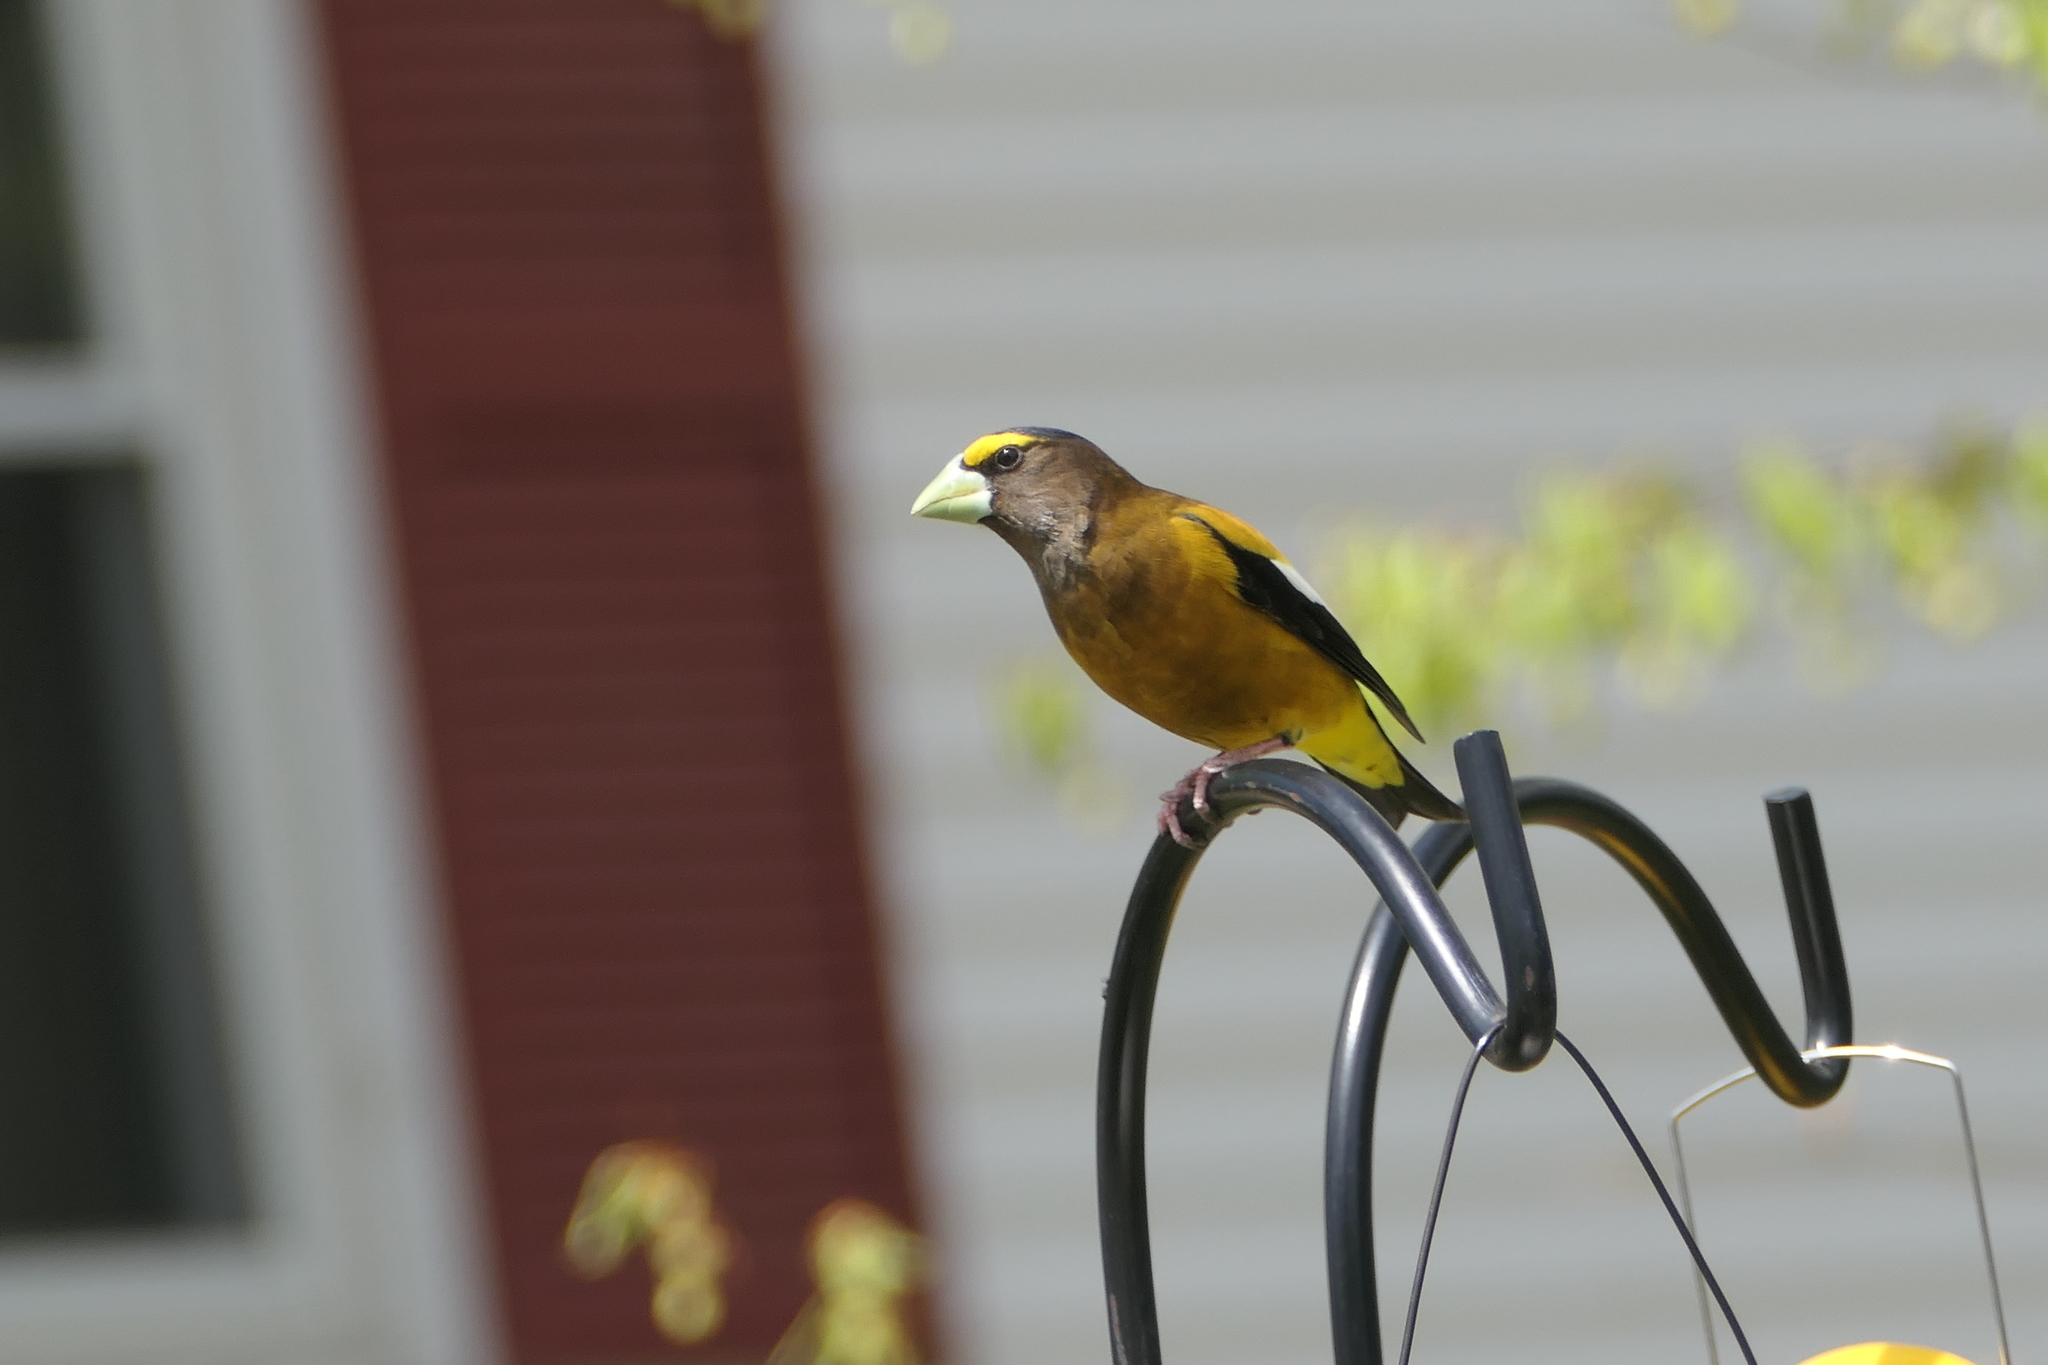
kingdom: Animalia
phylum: Chordata
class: Aves
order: Passeriformes
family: Fringillidae
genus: Hesperiphona
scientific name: Hesperiphona vespertina
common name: Evening grosbeak
